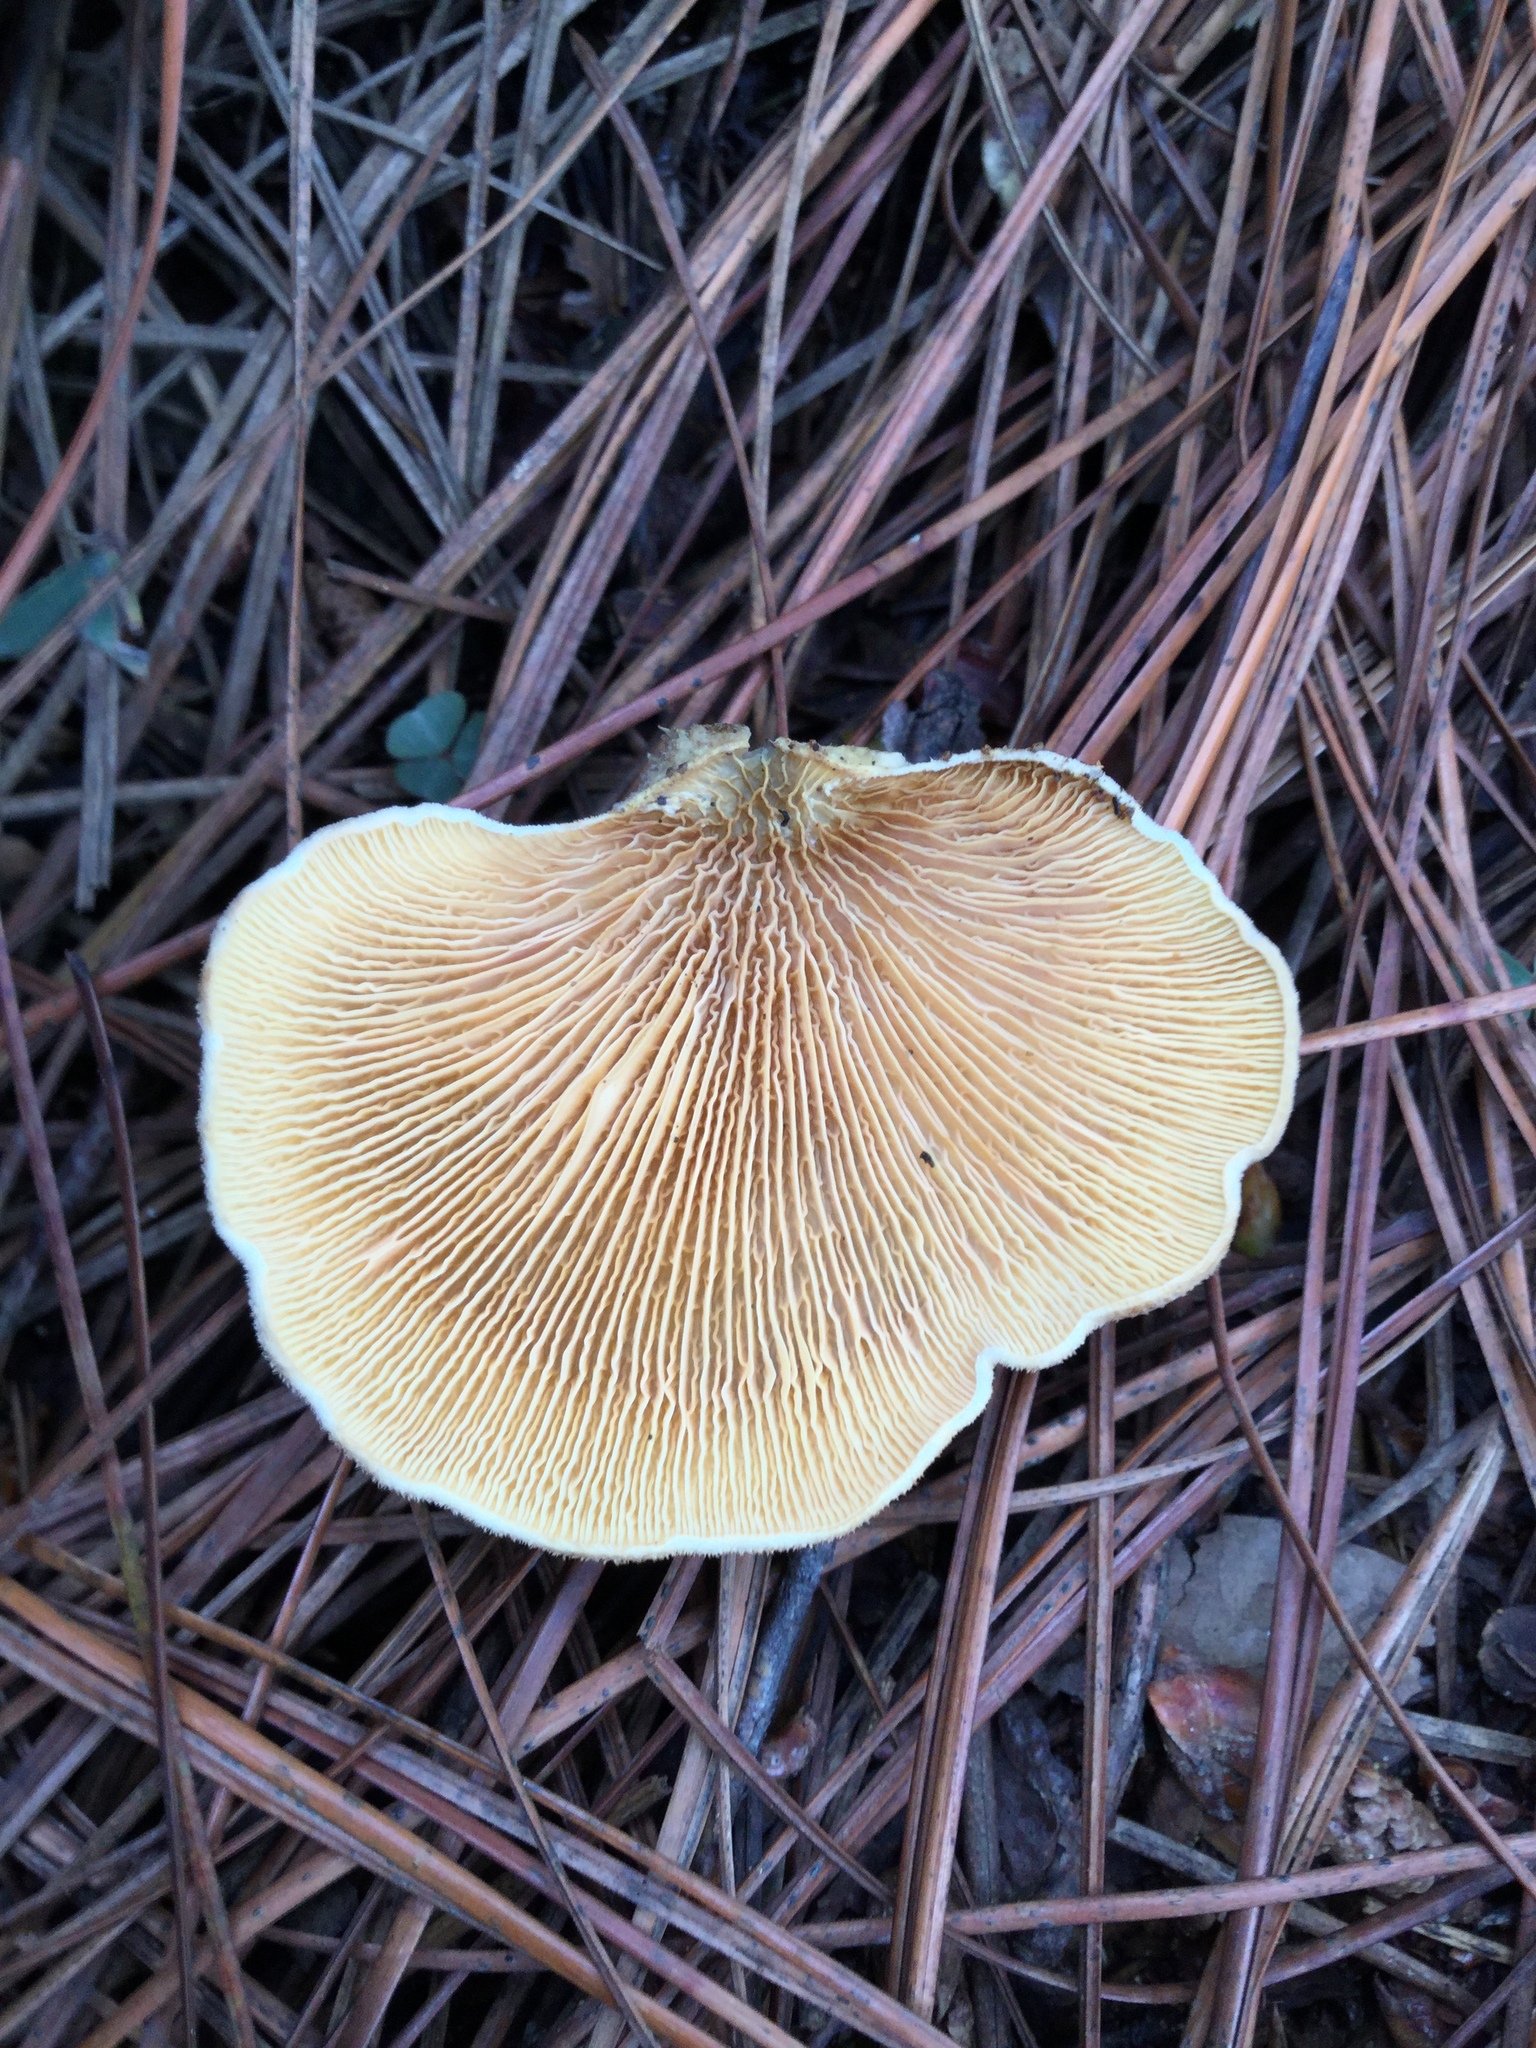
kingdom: Fungi
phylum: Basidiomycota
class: Agaricomycetes
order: Boletales
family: Tapinellaceae
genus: Tapinella
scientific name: Tapinella panuoides
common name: Oyster rollrim
